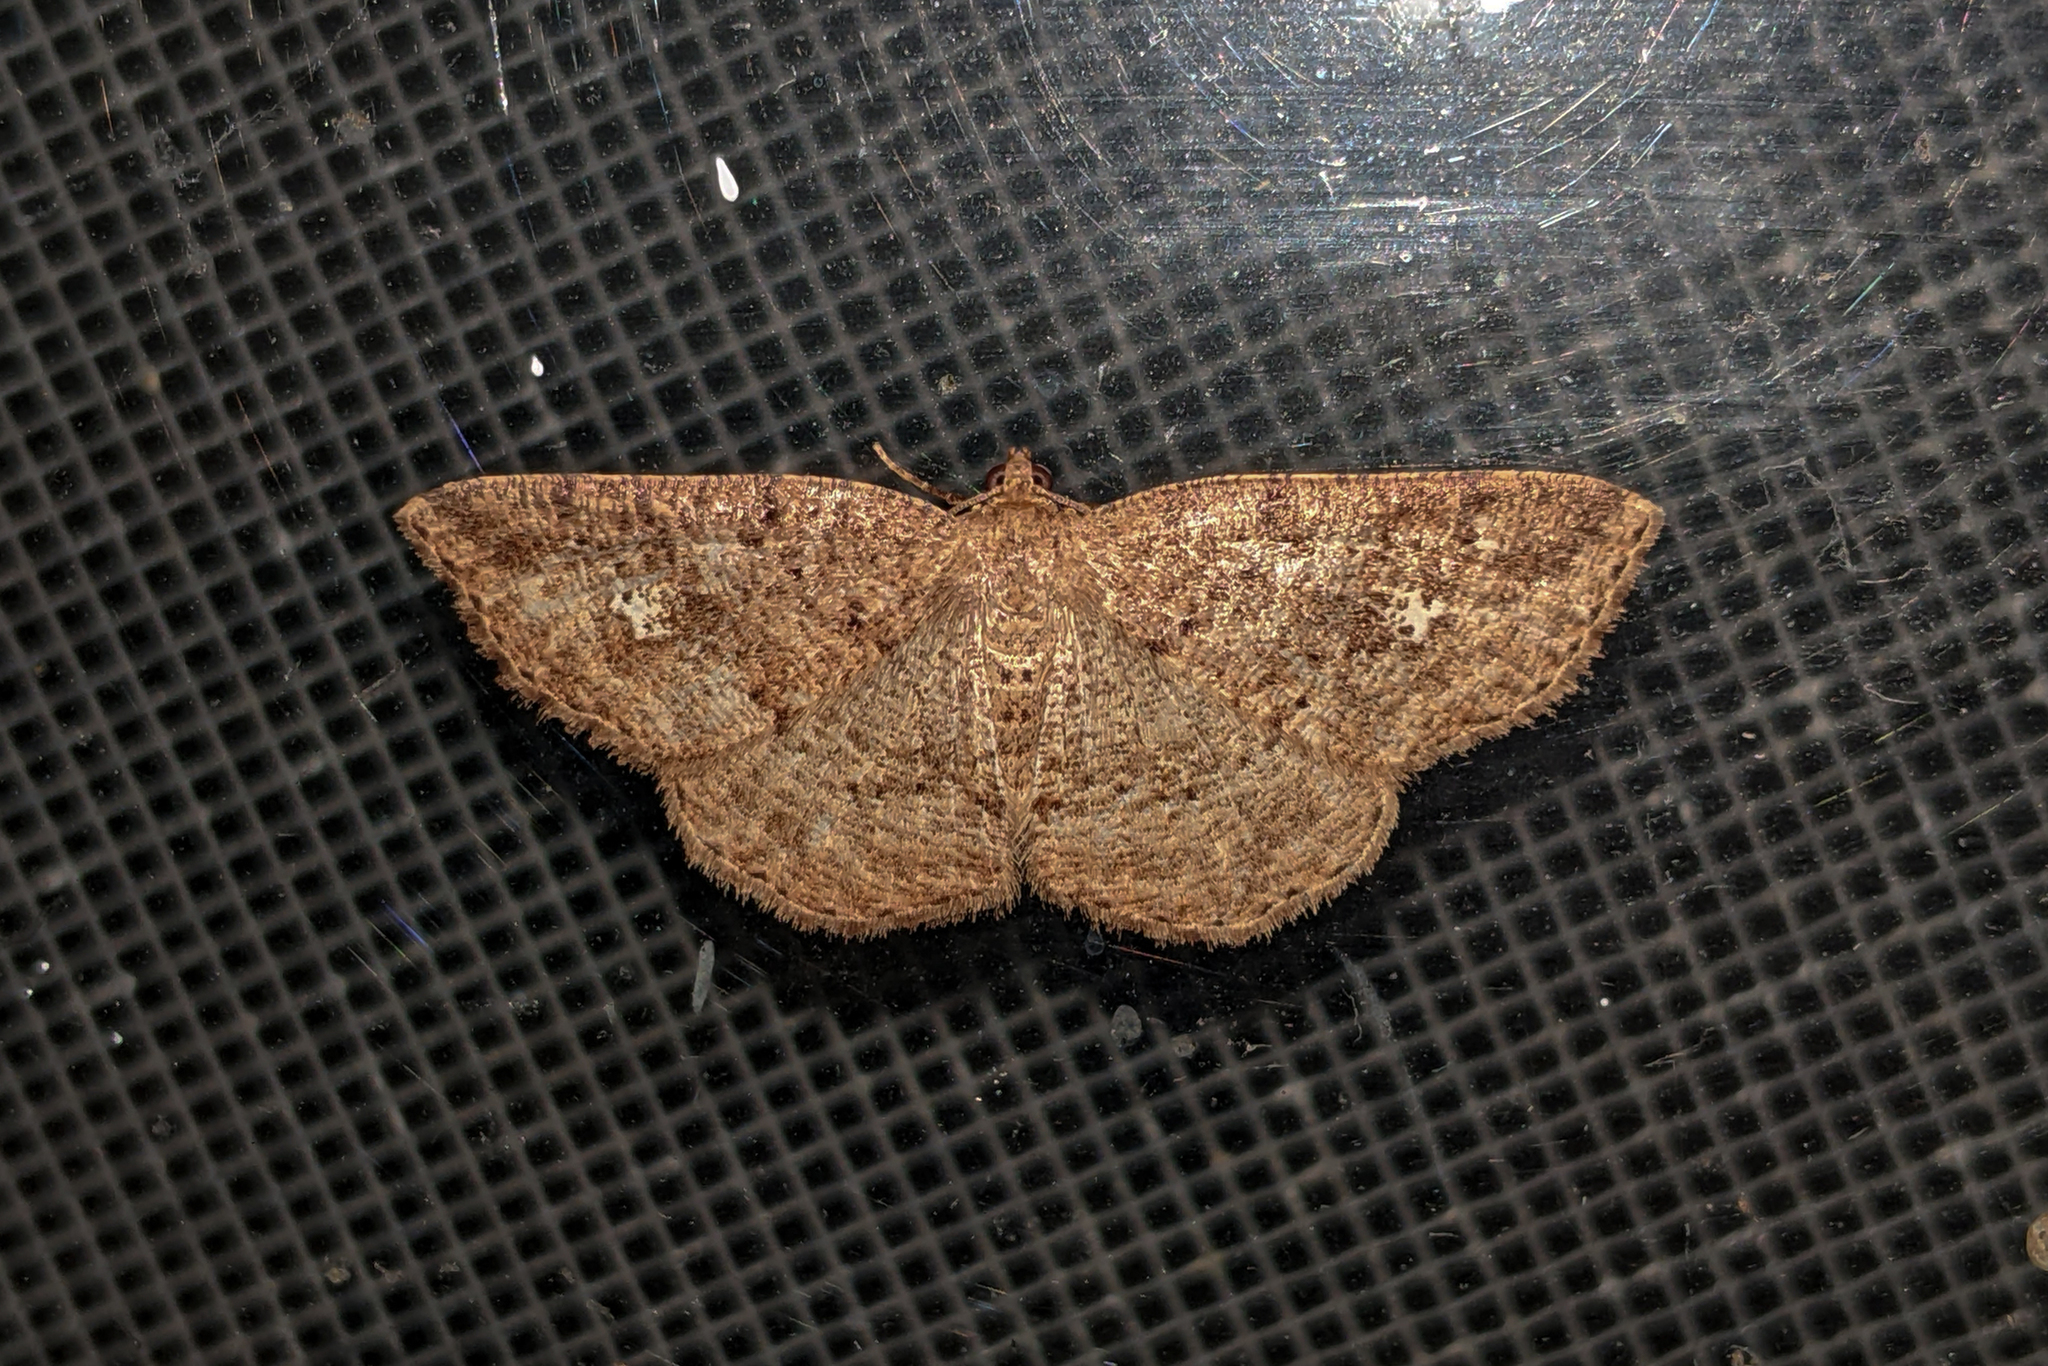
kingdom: Animalia
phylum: Arthropoda
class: Insecta
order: Lepidoptera
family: Geometridae
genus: Homochlodes
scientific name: Homochlodes fritillaria
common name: Pale homochlodes
